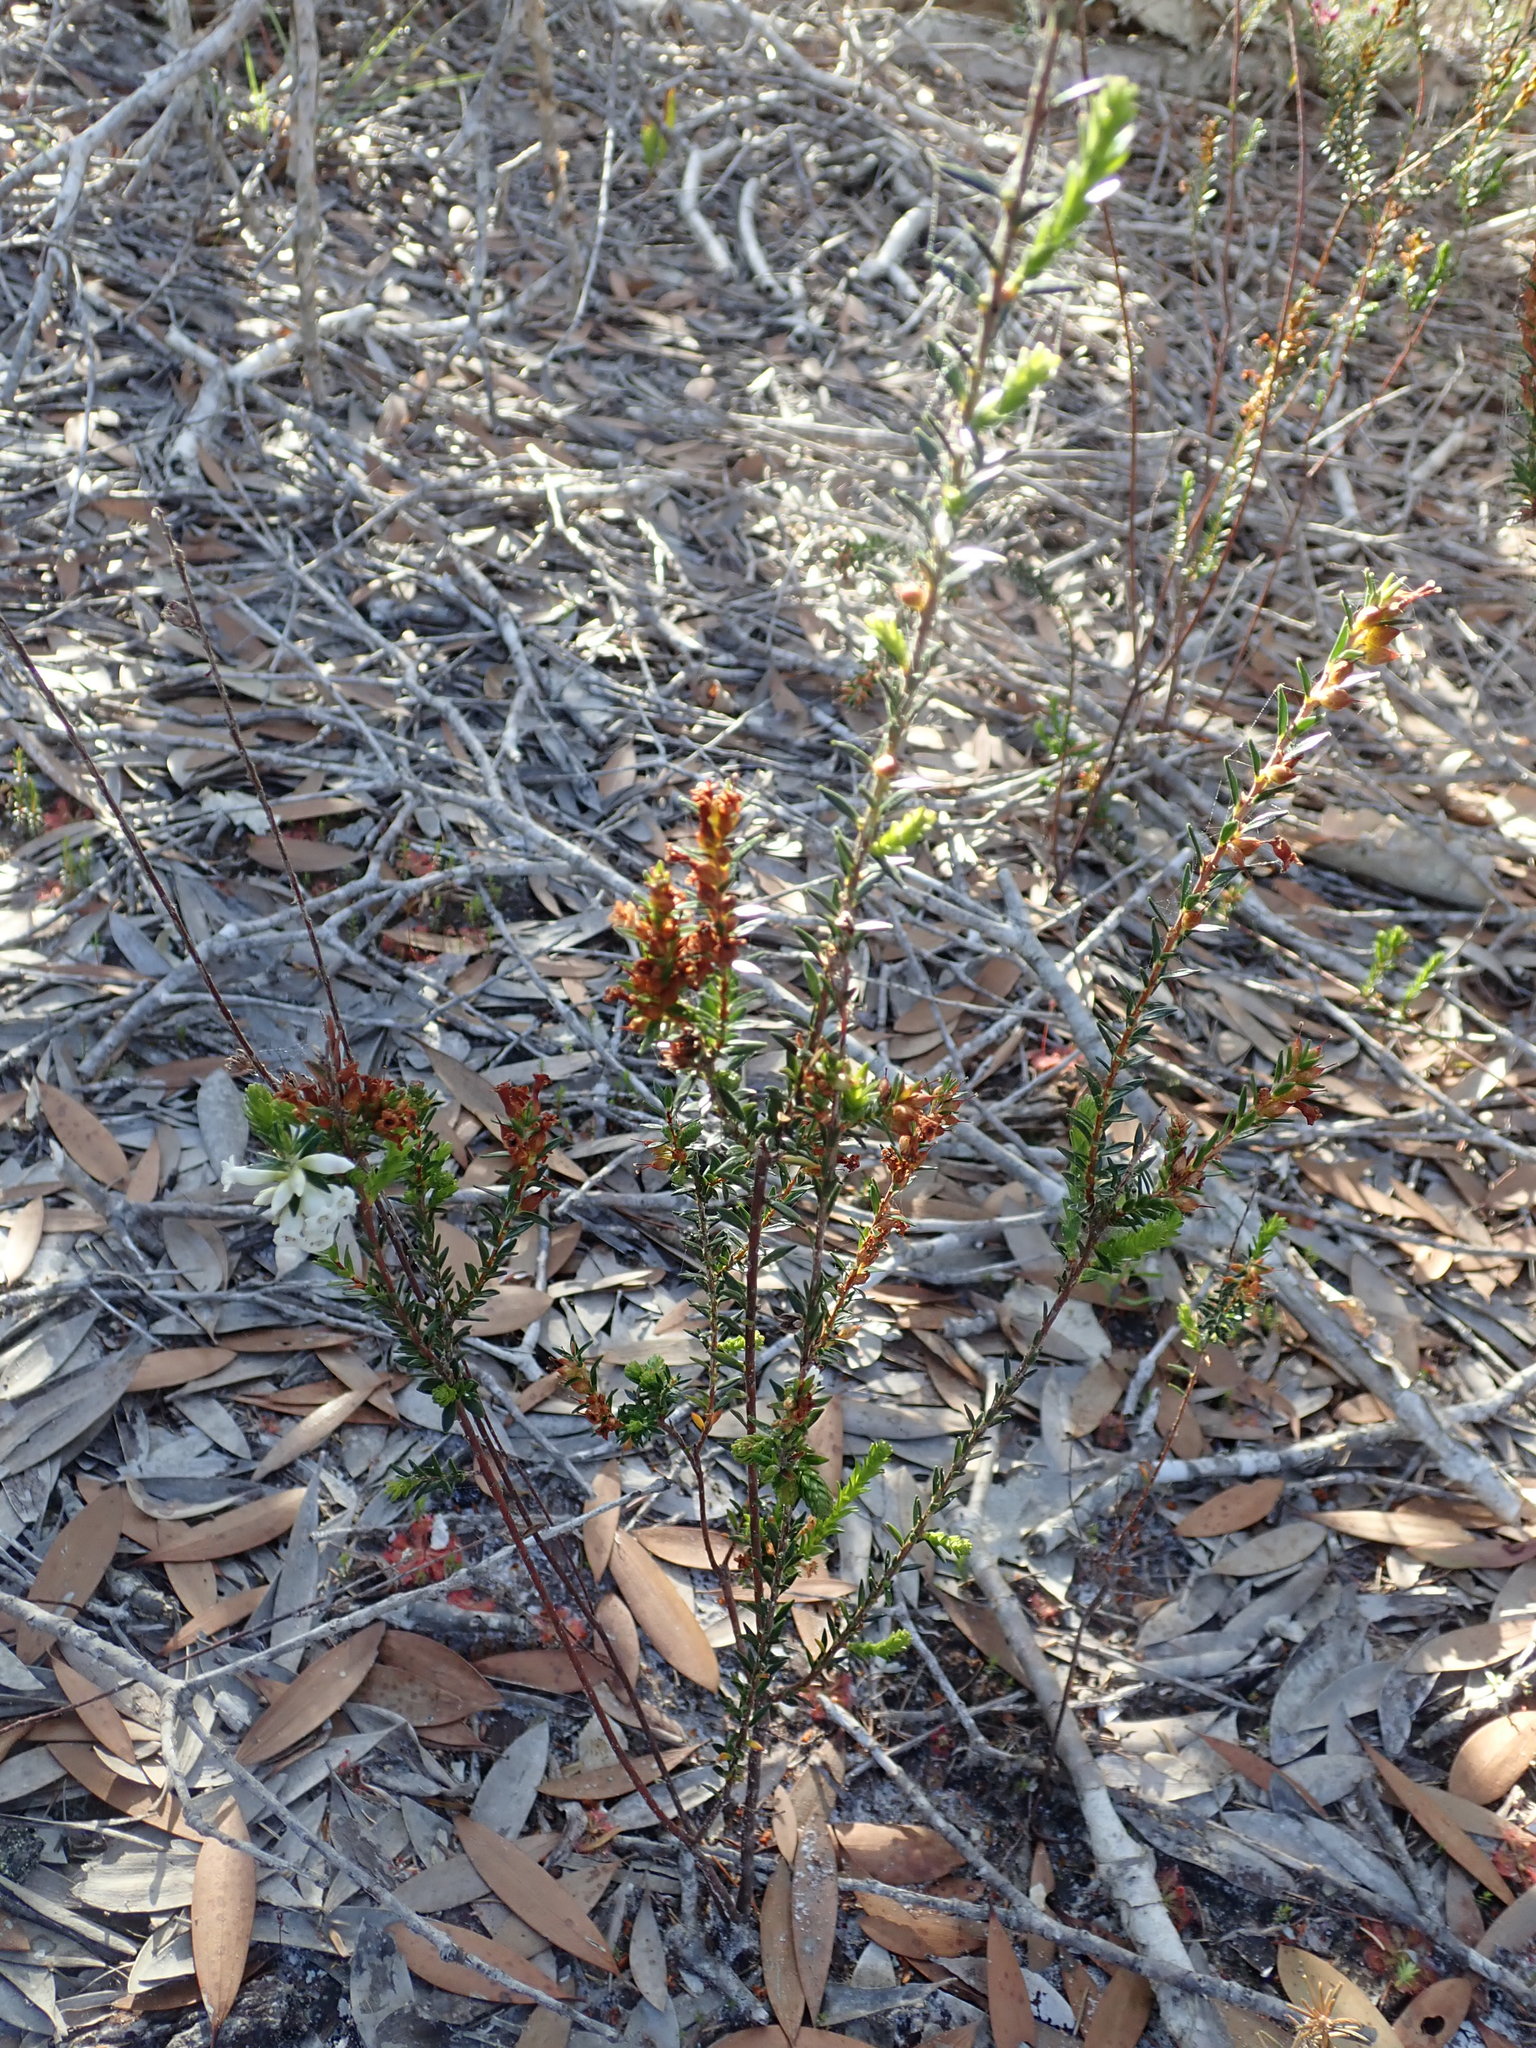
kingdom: Plantae
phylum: Tracheophyta
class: Magnoliopsida
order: Ericales
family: Ericaceae
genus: Epacris
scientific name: Epacris obtusifolia
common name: Blunt-leaf australian-heath
